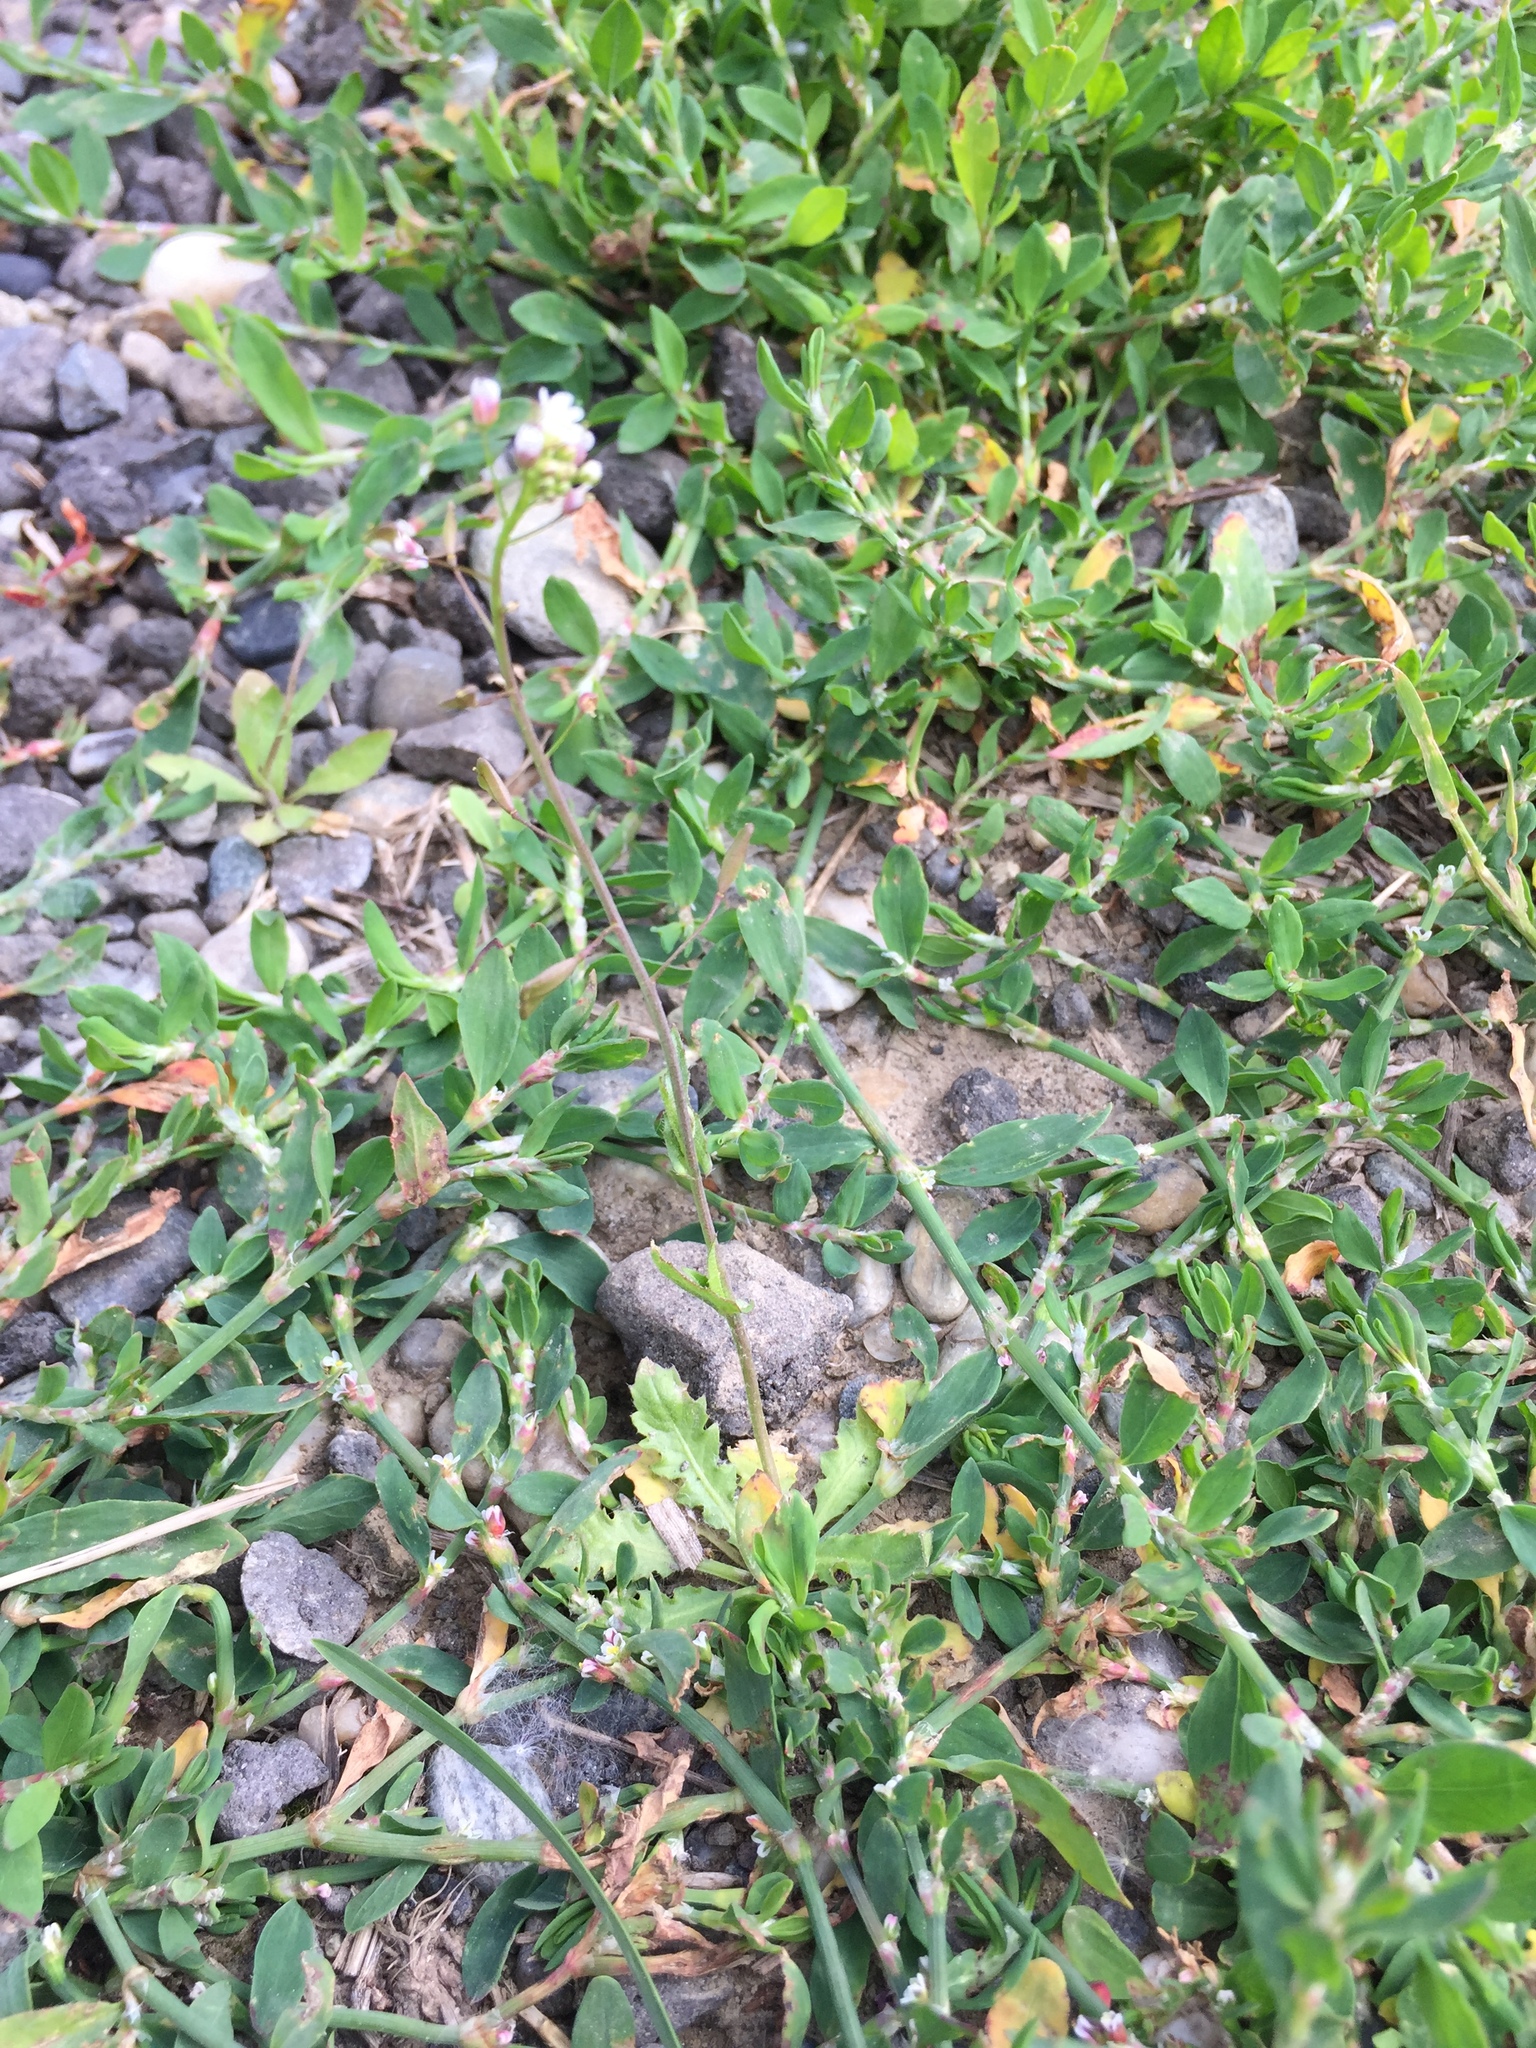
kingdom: Plantae
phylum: Tracheophyta
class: Magnoliopsida
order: Brassicales
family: Brassicaceae
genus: Capsella
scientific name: Capsella bursa-pastoris
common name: Shepherd's purse
